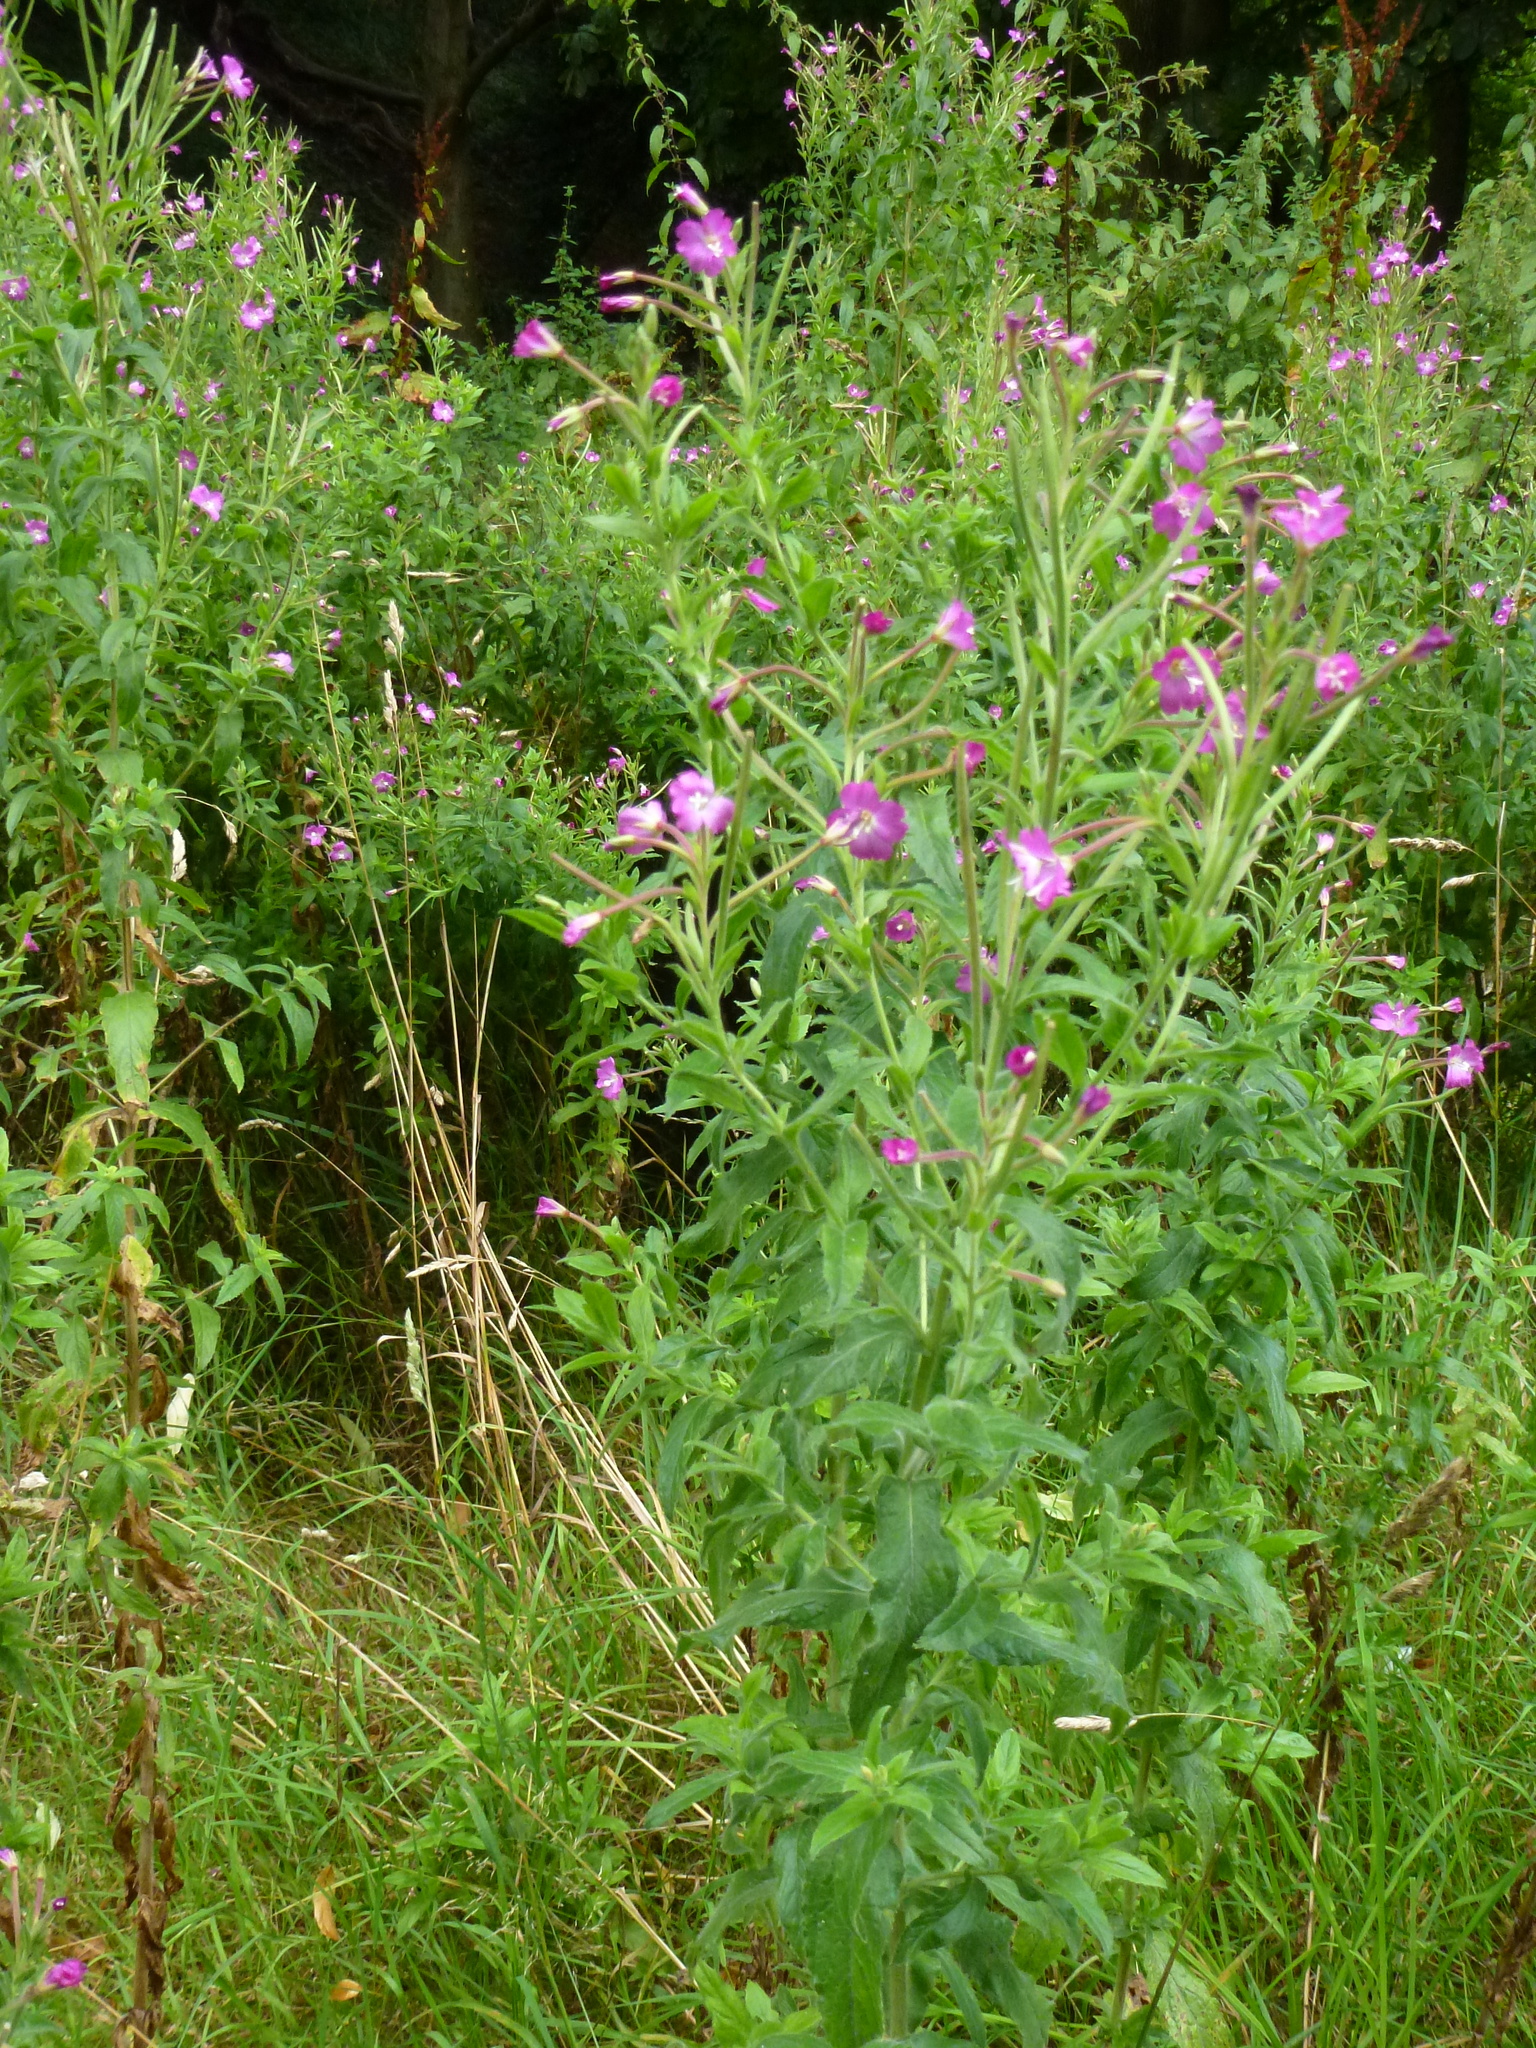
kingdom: Plantae
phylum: Tracheophyta
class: Magnoliopsida
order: Myrtales
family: Onagraceae
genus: Epilobium
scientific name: Epilobium hirsutum
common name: Great willowherb
